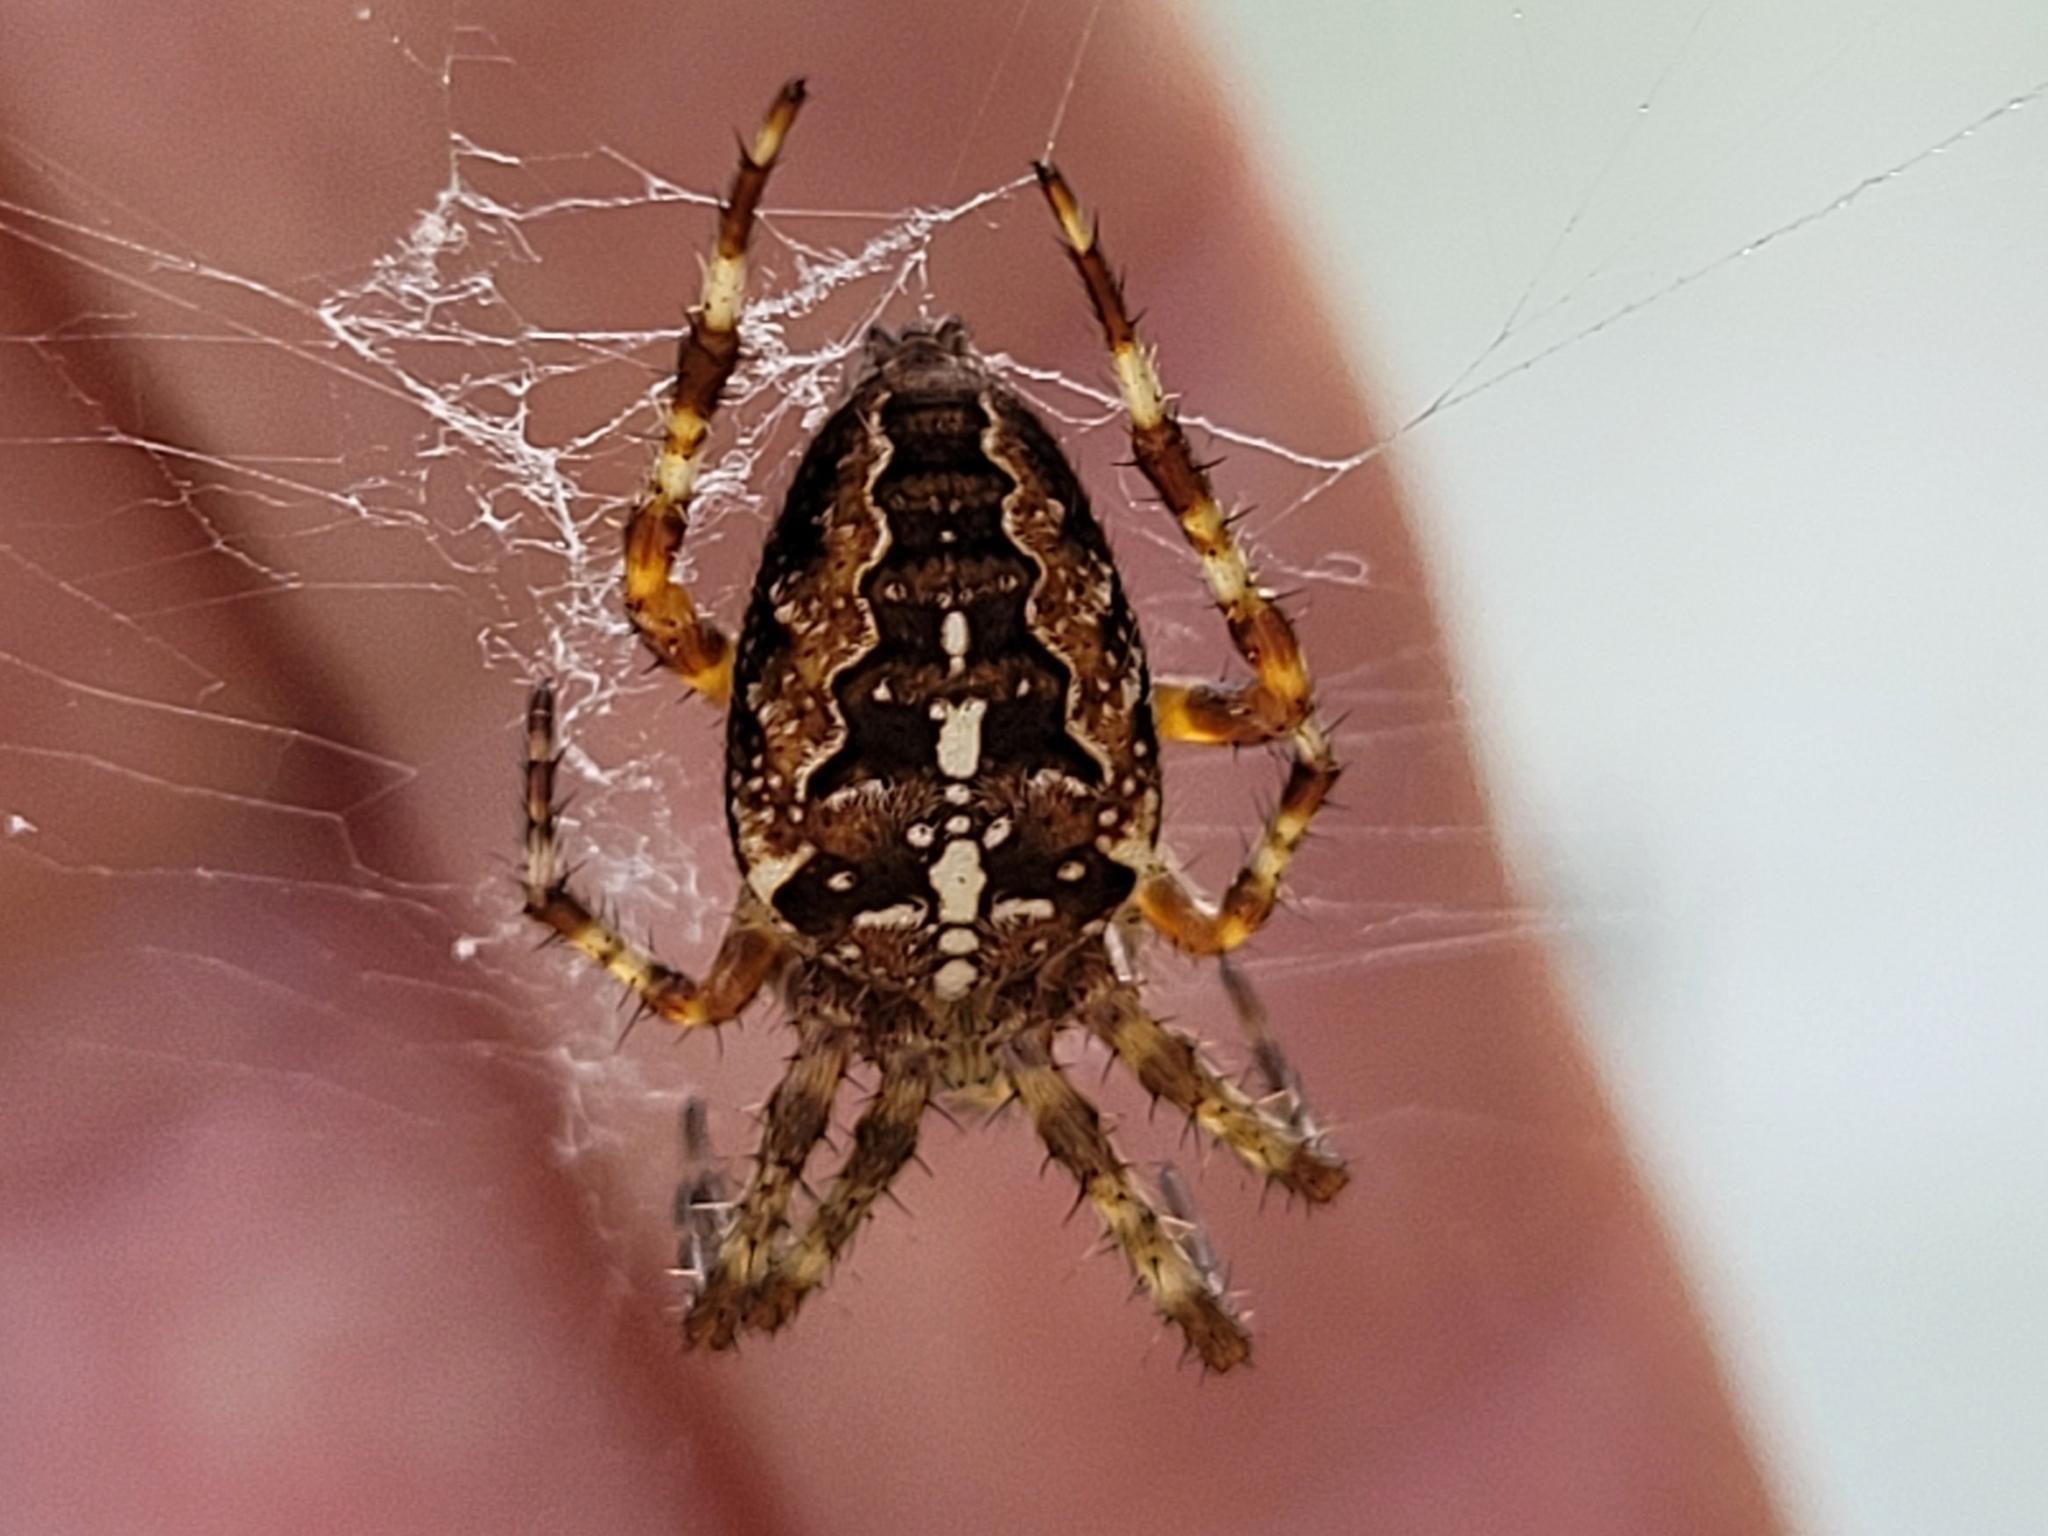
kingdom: Animalia
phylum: Arthropoda
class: Arachnida
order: Araneae
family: Araneidae
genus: Araneus
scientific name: Araneus diadematus
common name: Cross orbweaver
